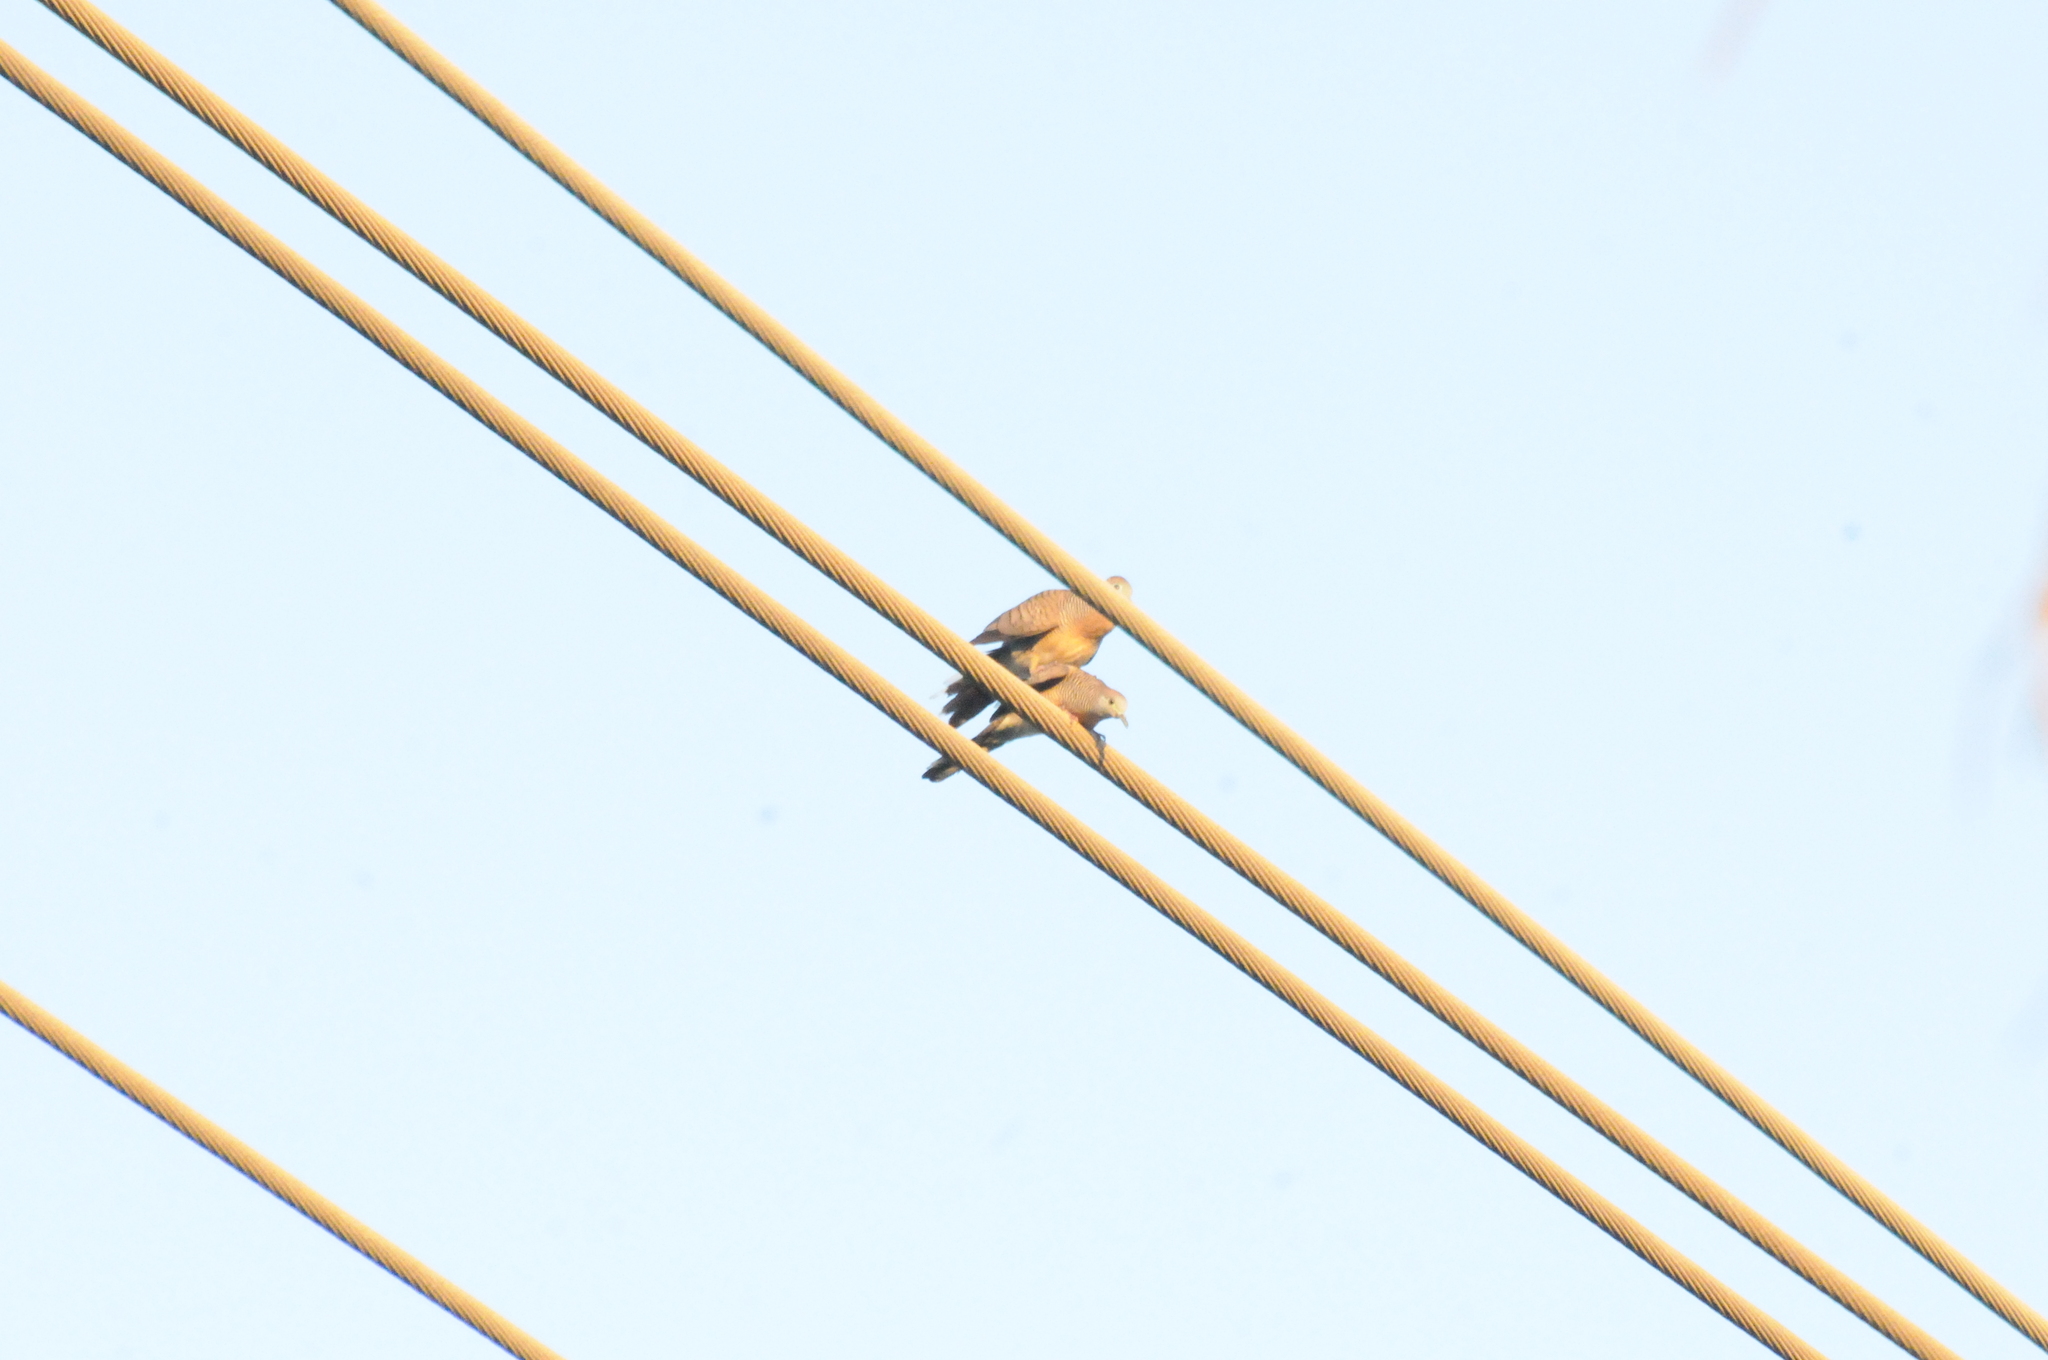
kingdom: Animalia
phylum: Chordata
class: Aves
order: Columbiformes
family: Columbidae
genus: Geopelia
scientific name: Geopelia striata
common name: Zebra dove
